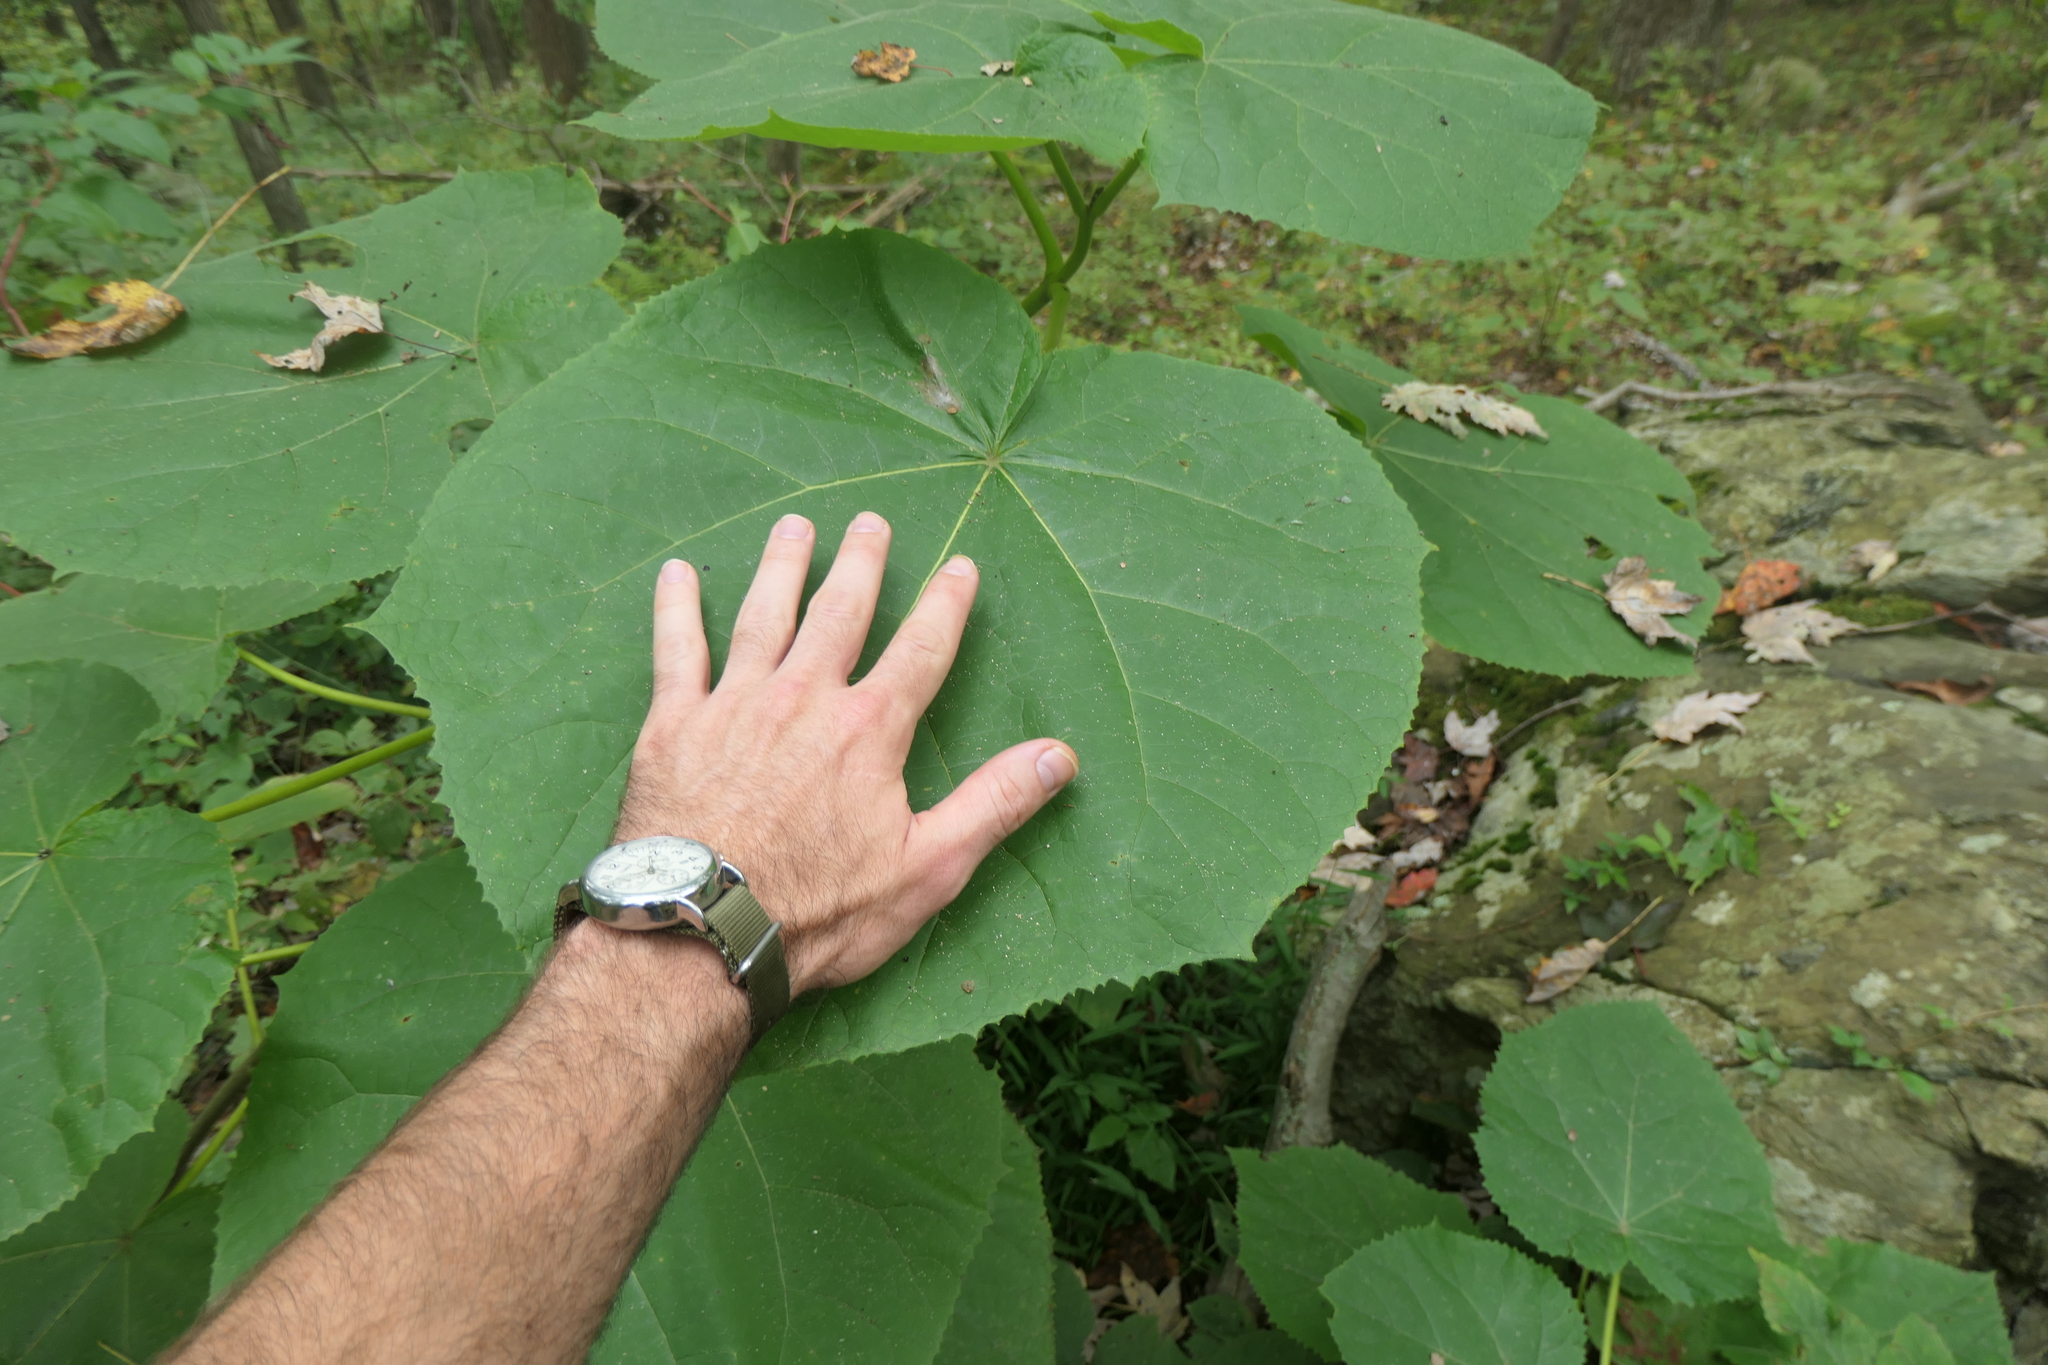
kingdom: Plantae
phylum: Tracheophyta
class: Magnoliopsida
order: Lamiales
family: Paulowniaceae
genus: Paulownia
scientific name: Paulownia tomentosa
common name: Foxglove-tree
